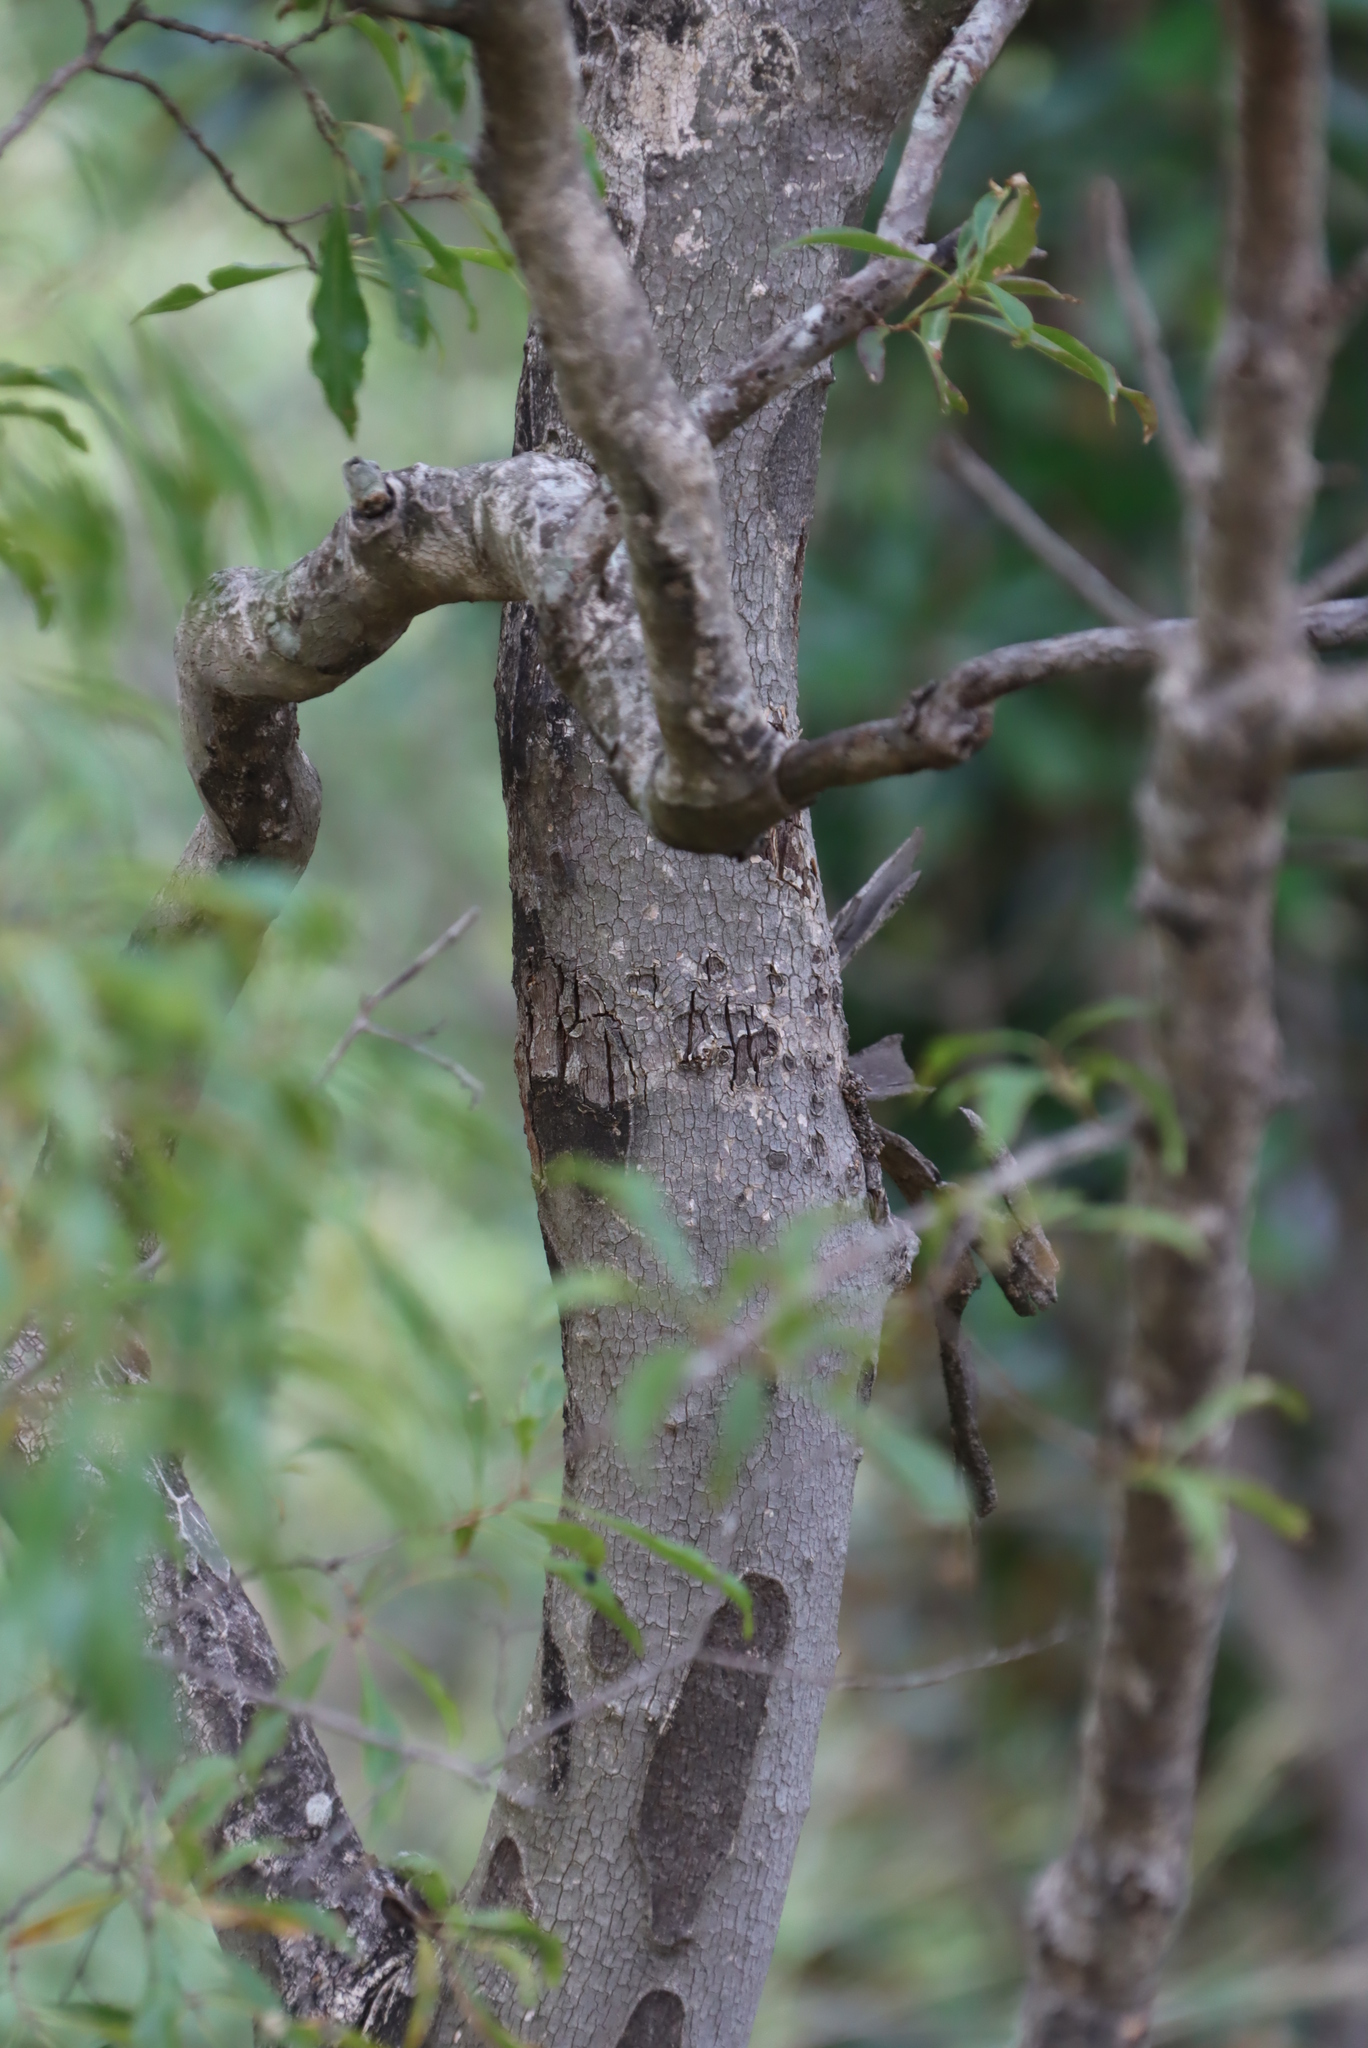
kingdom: Plantae
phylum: Tracheophyta
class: Magnoliopsida
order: Myrtales
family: Myrtaceae
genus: Heteropyxis
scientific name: Heteropyxis natalensis
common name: Lavender tree
